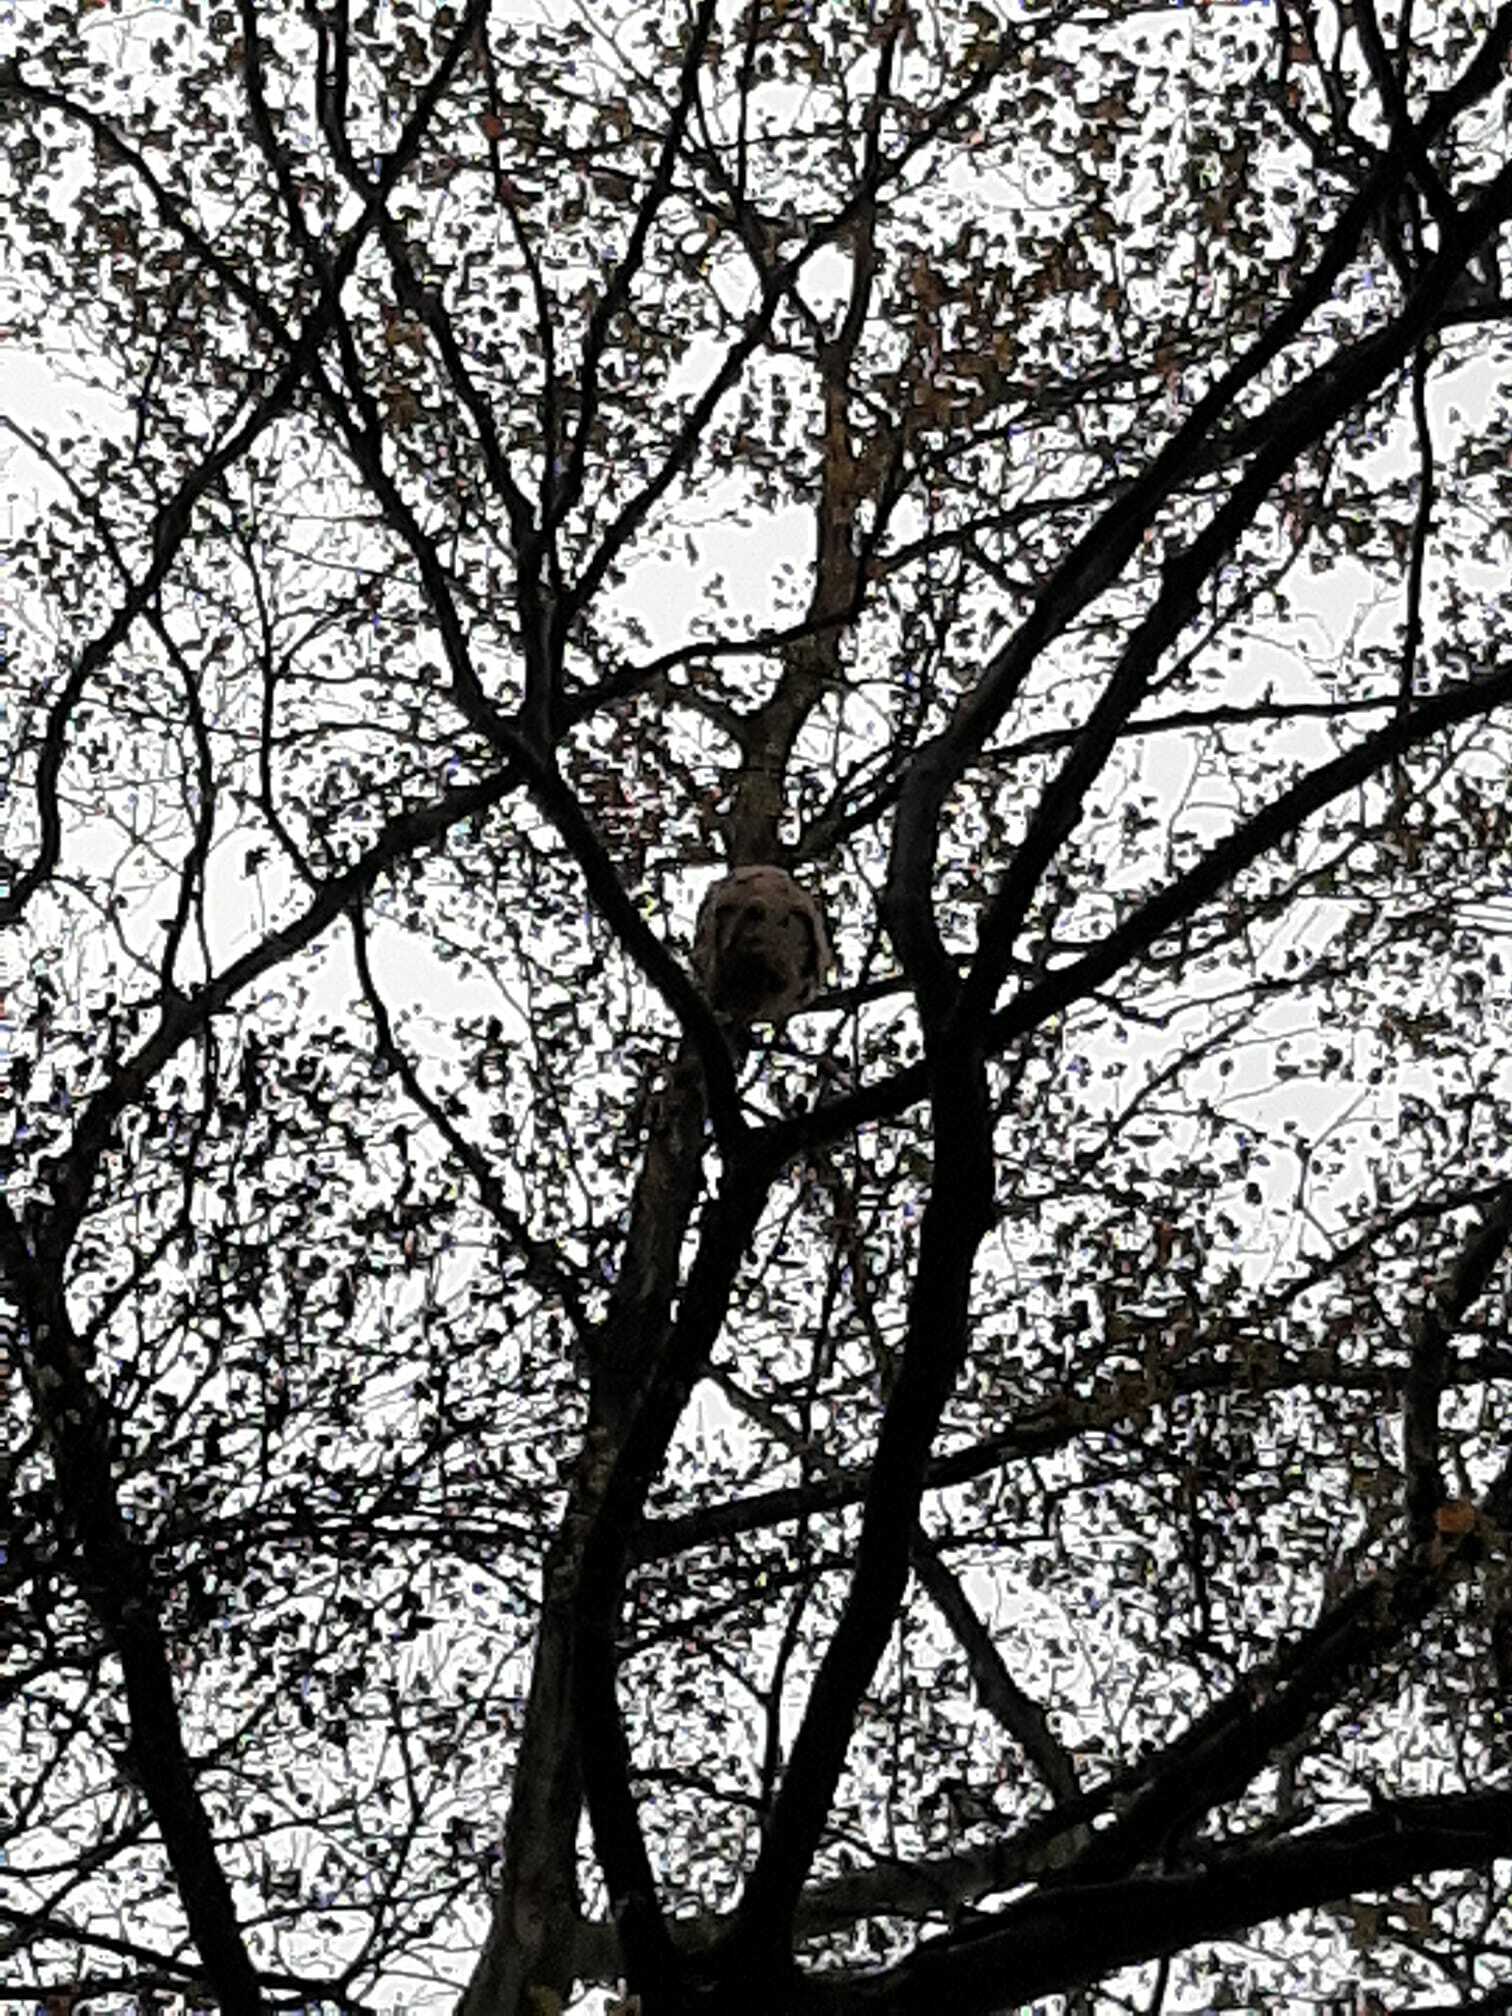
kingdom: Animalia
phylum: Arthropoda
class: Insecta
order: Hymenoptera
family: Vespidae
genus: Vespa
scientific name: Vespa velutina
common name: Asian hornet
